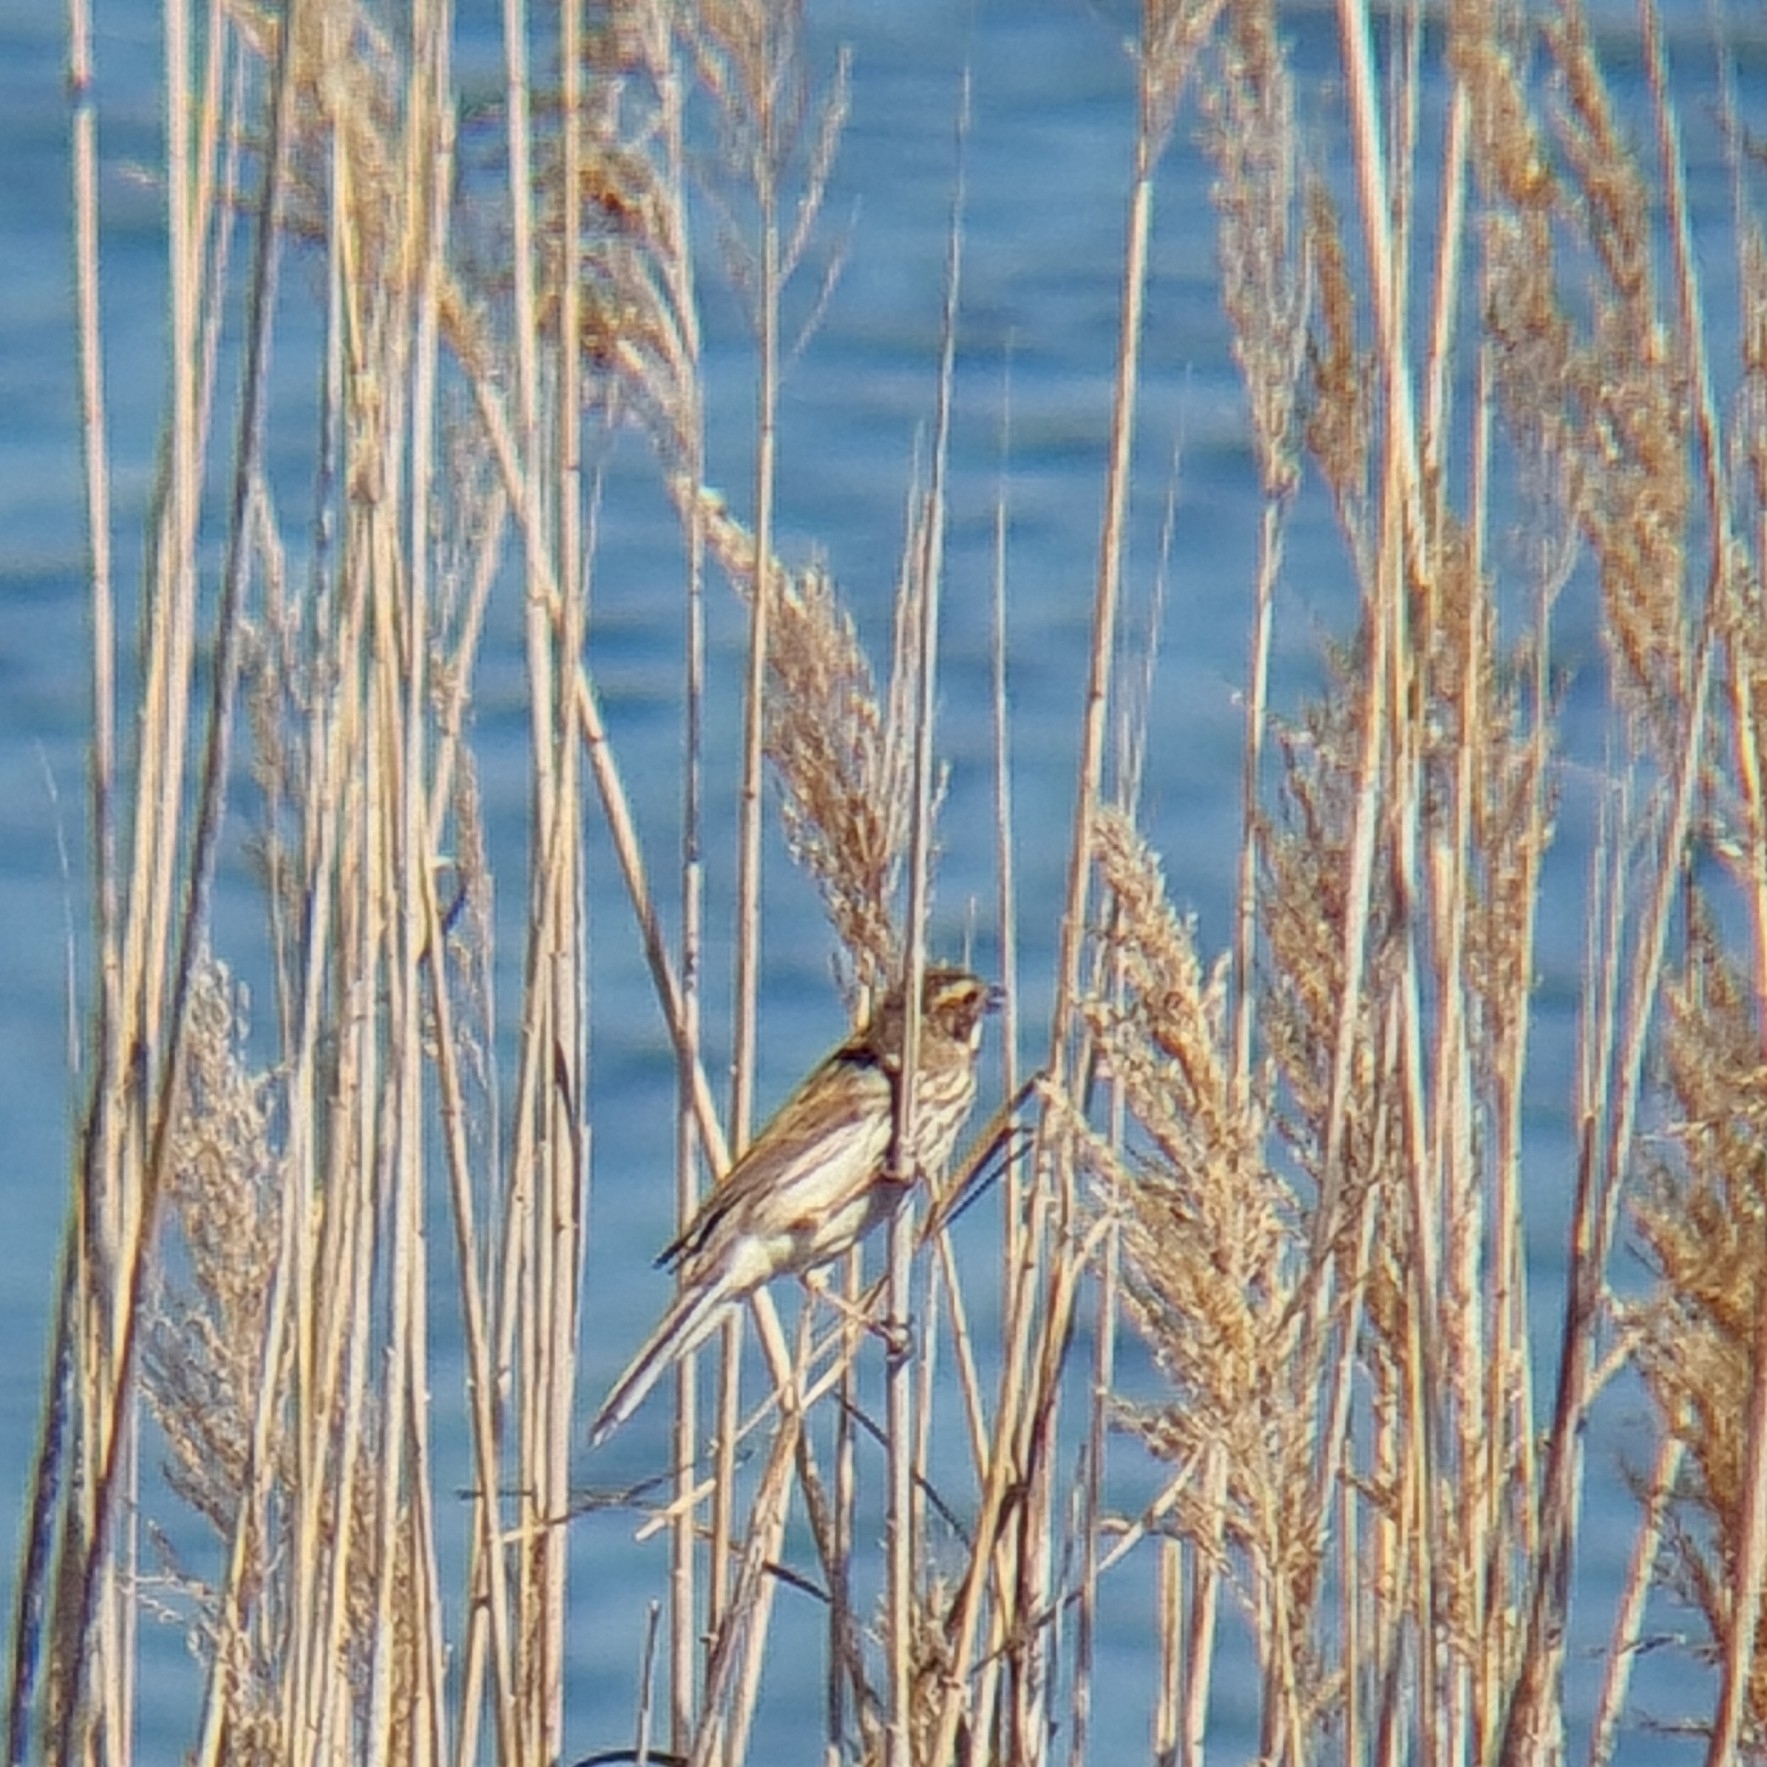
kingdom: Animalia
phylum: Chordata
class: Aves
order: Passeriformes
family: Emberizidae
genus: Emberiza
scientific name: Emberiza schoeniclus
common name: Reed bunting
